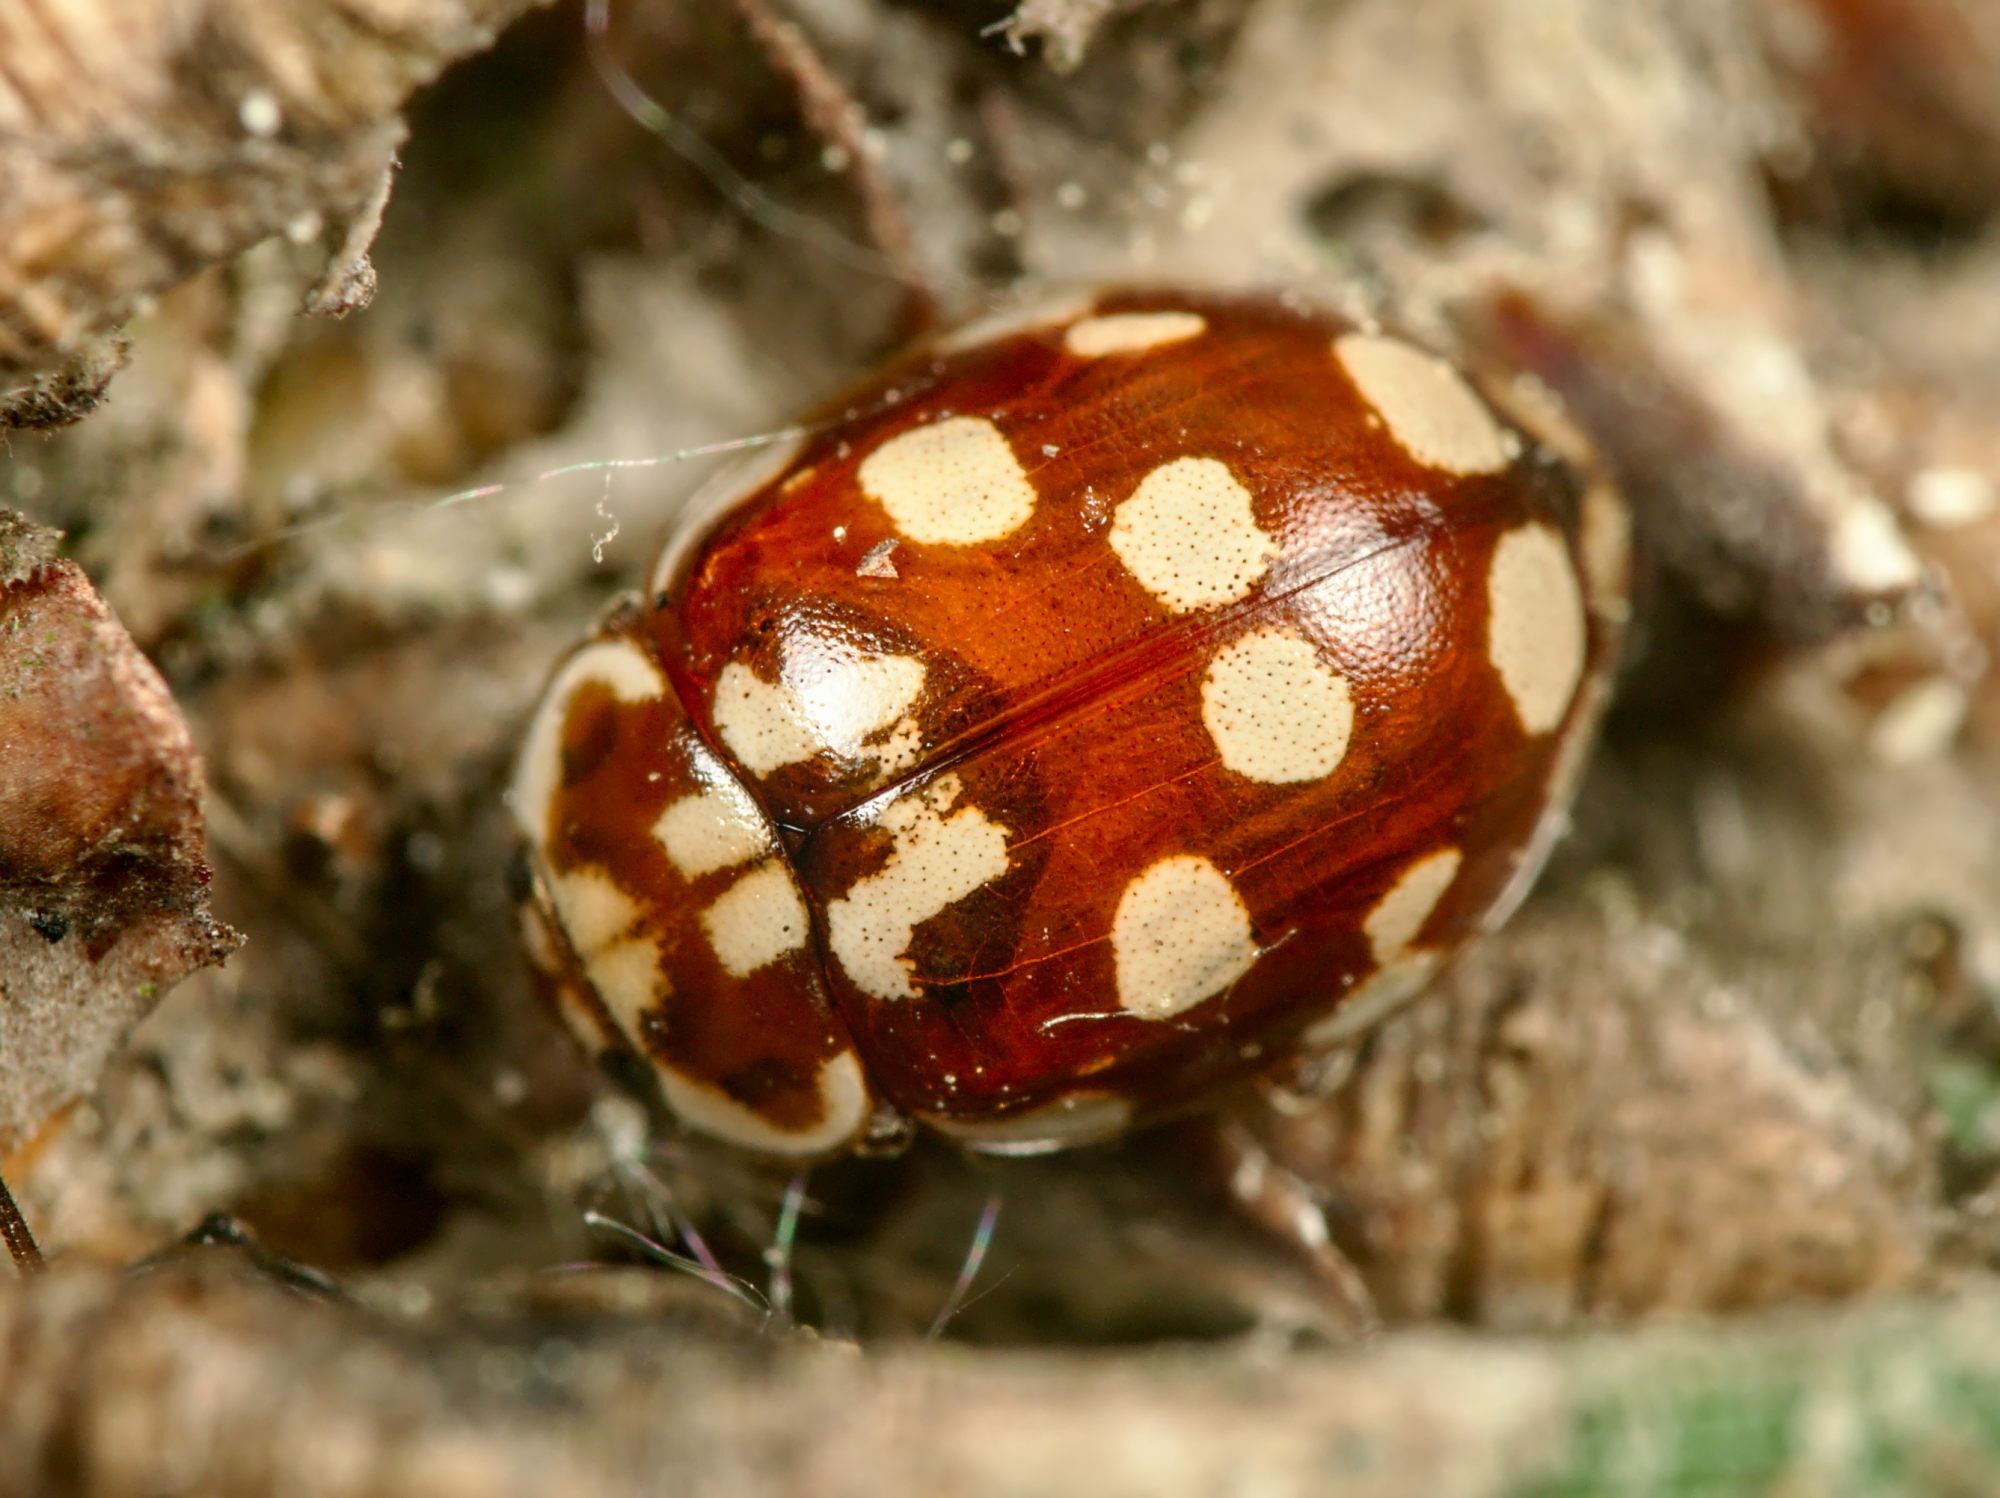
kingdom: Animalia
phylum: Arthropoda
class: Insecta
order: Coleoptera
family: Coccinellidae
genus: Myrrha
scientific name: Myrrha octodecimguttata
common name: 18-spot ladybird
